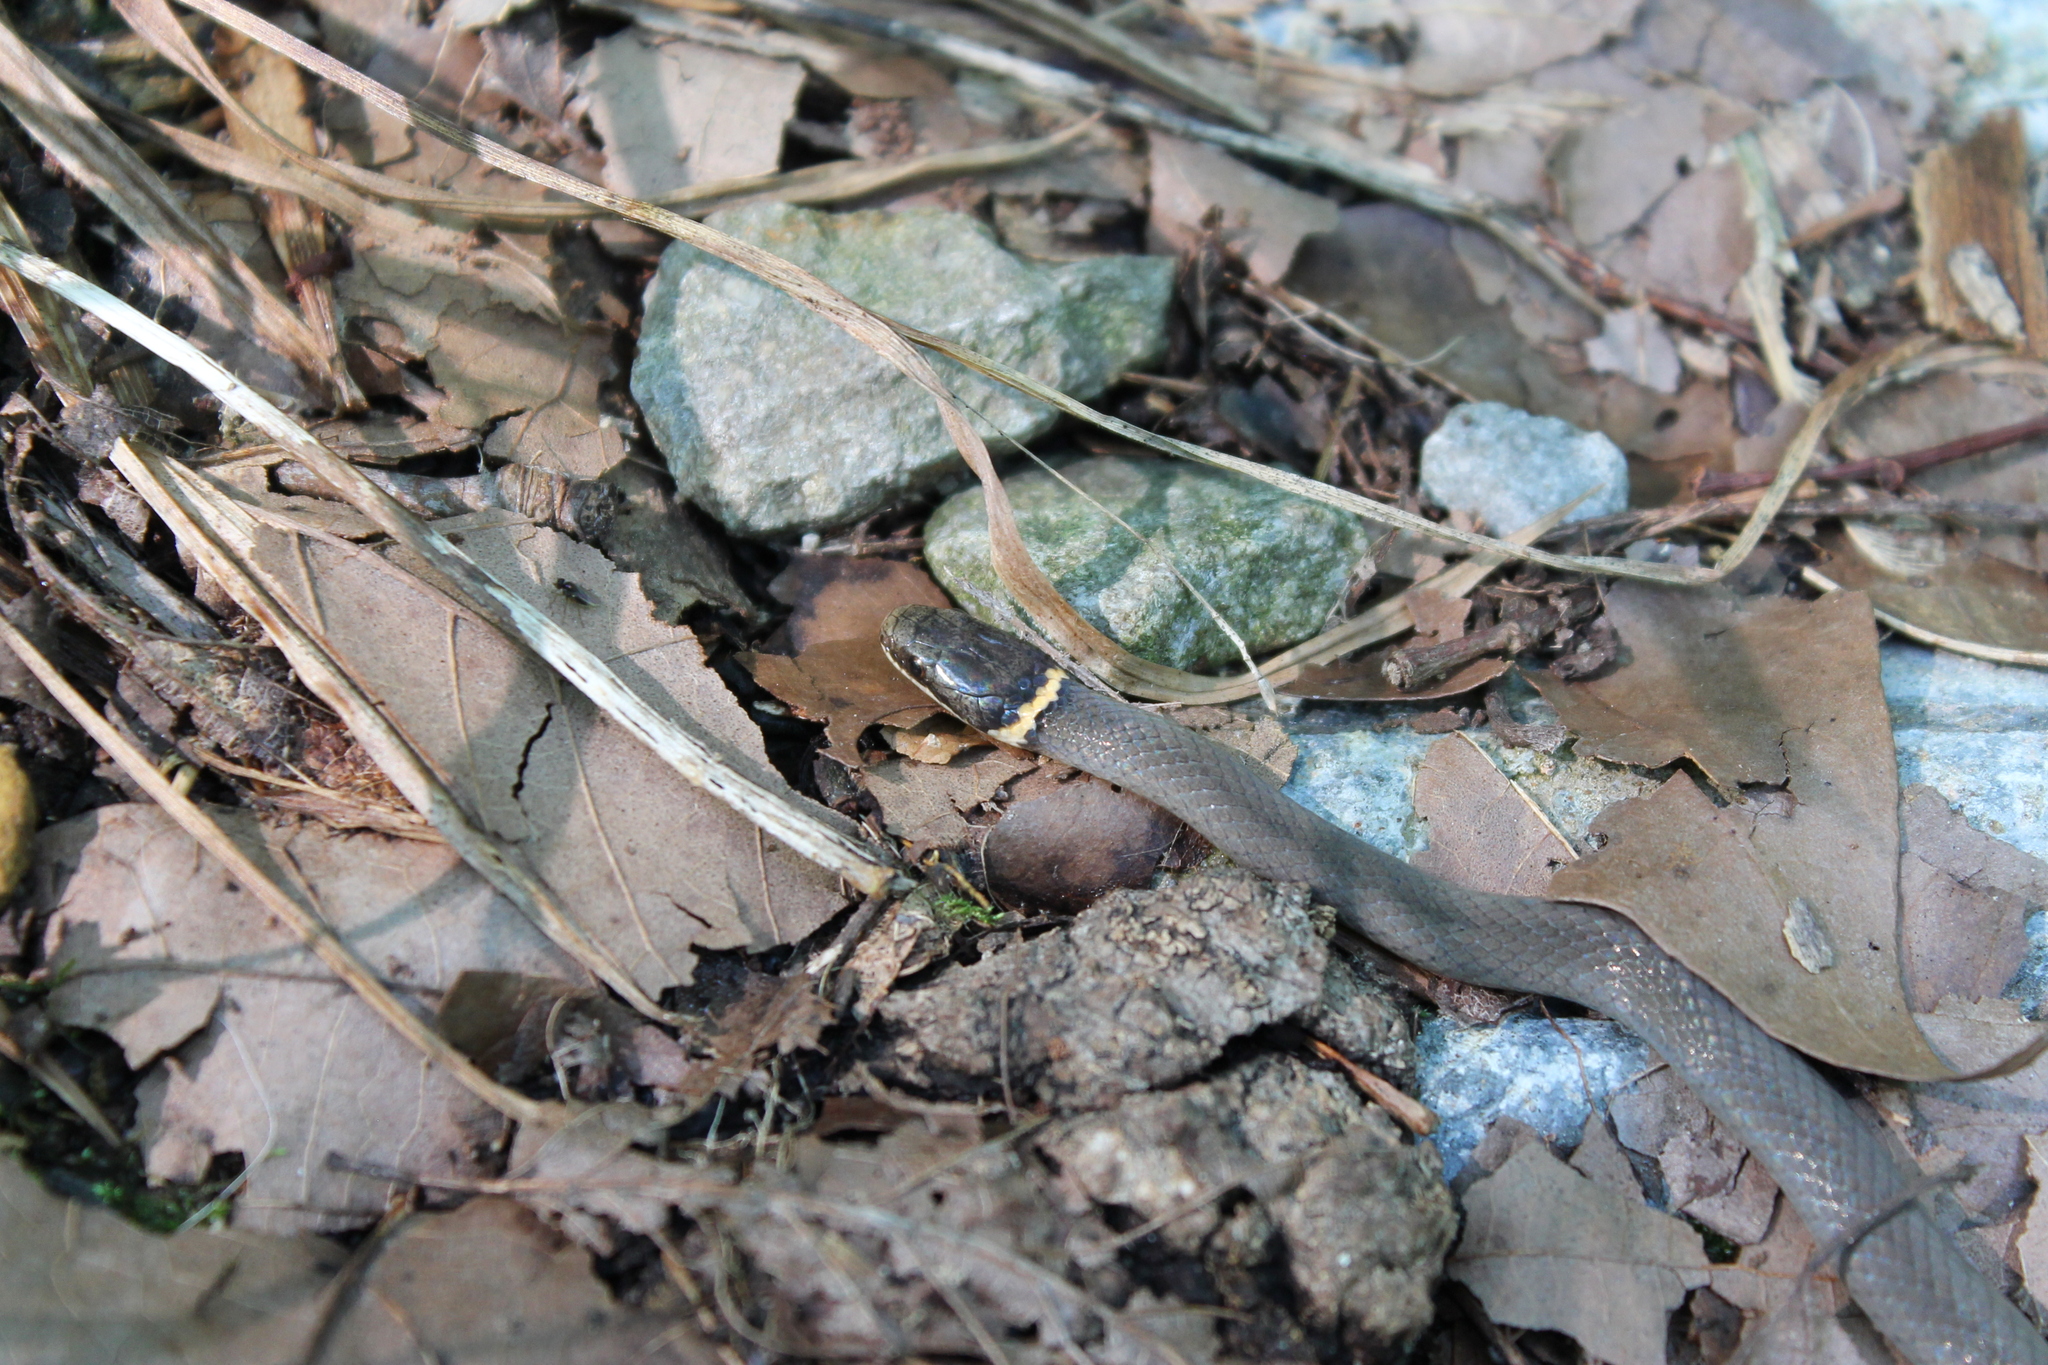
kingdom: Animalia
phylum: Chordata
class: Squamata
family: Colubridae
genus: Diadophis
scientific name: Diadophis punctatus
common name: Ringneck snake
